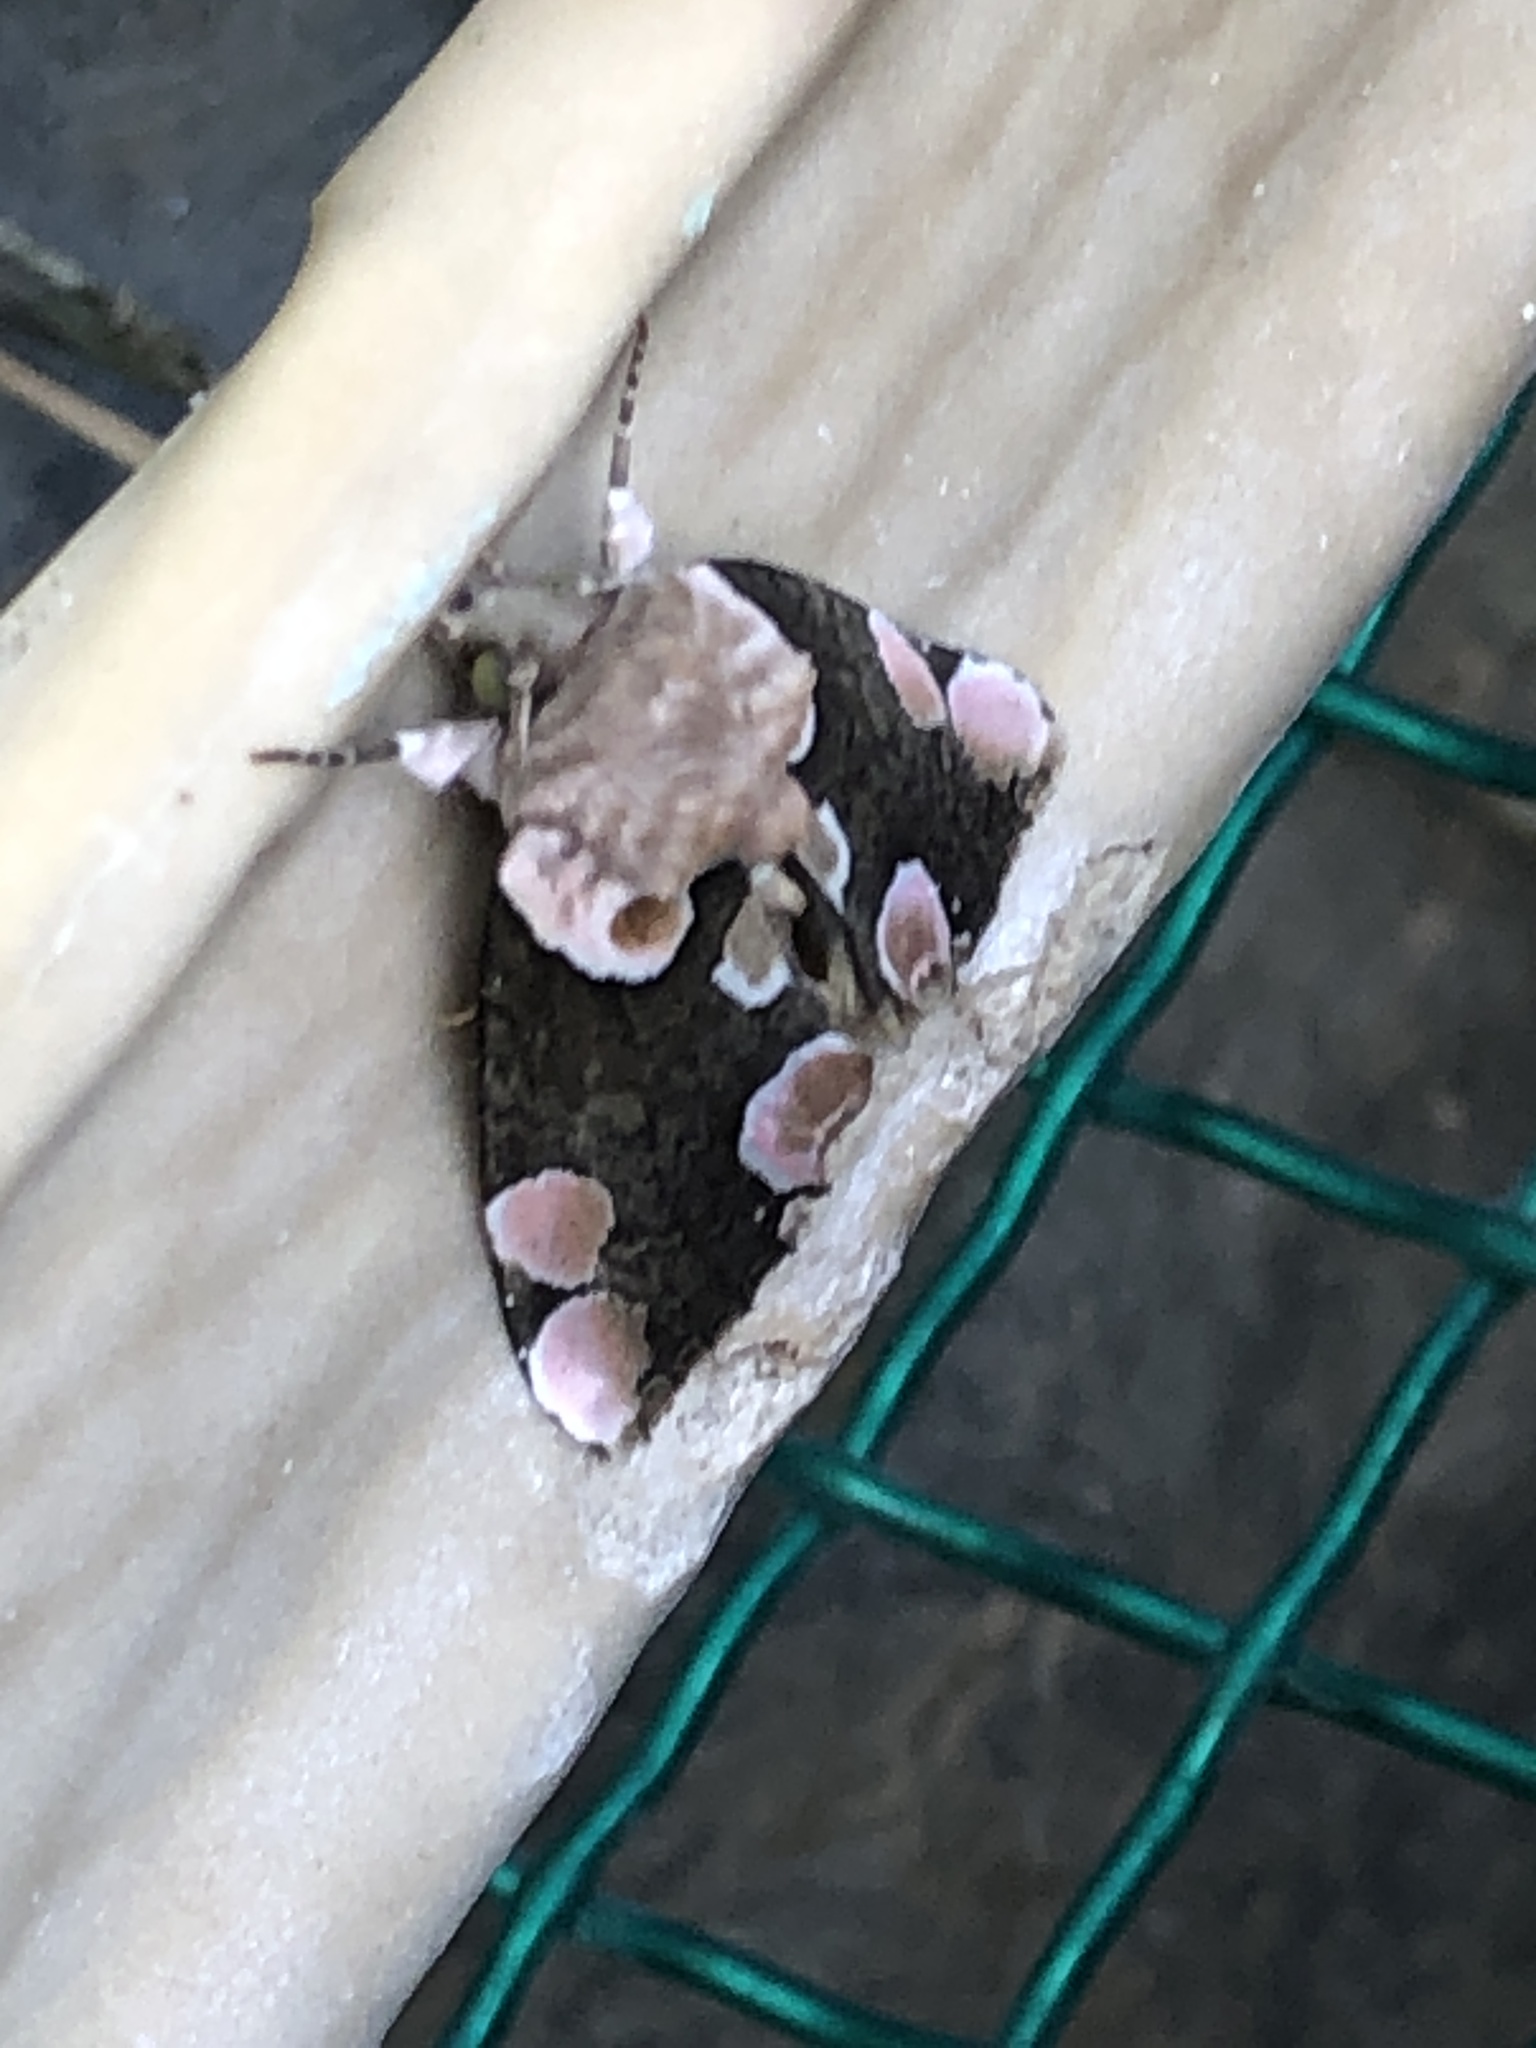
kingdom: Animalia
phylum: Arthropoda
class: Insecta
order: Lepidoptera
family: Drepanidae
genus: Thyatira
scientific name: Thyatira batis
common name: Peach blossom
